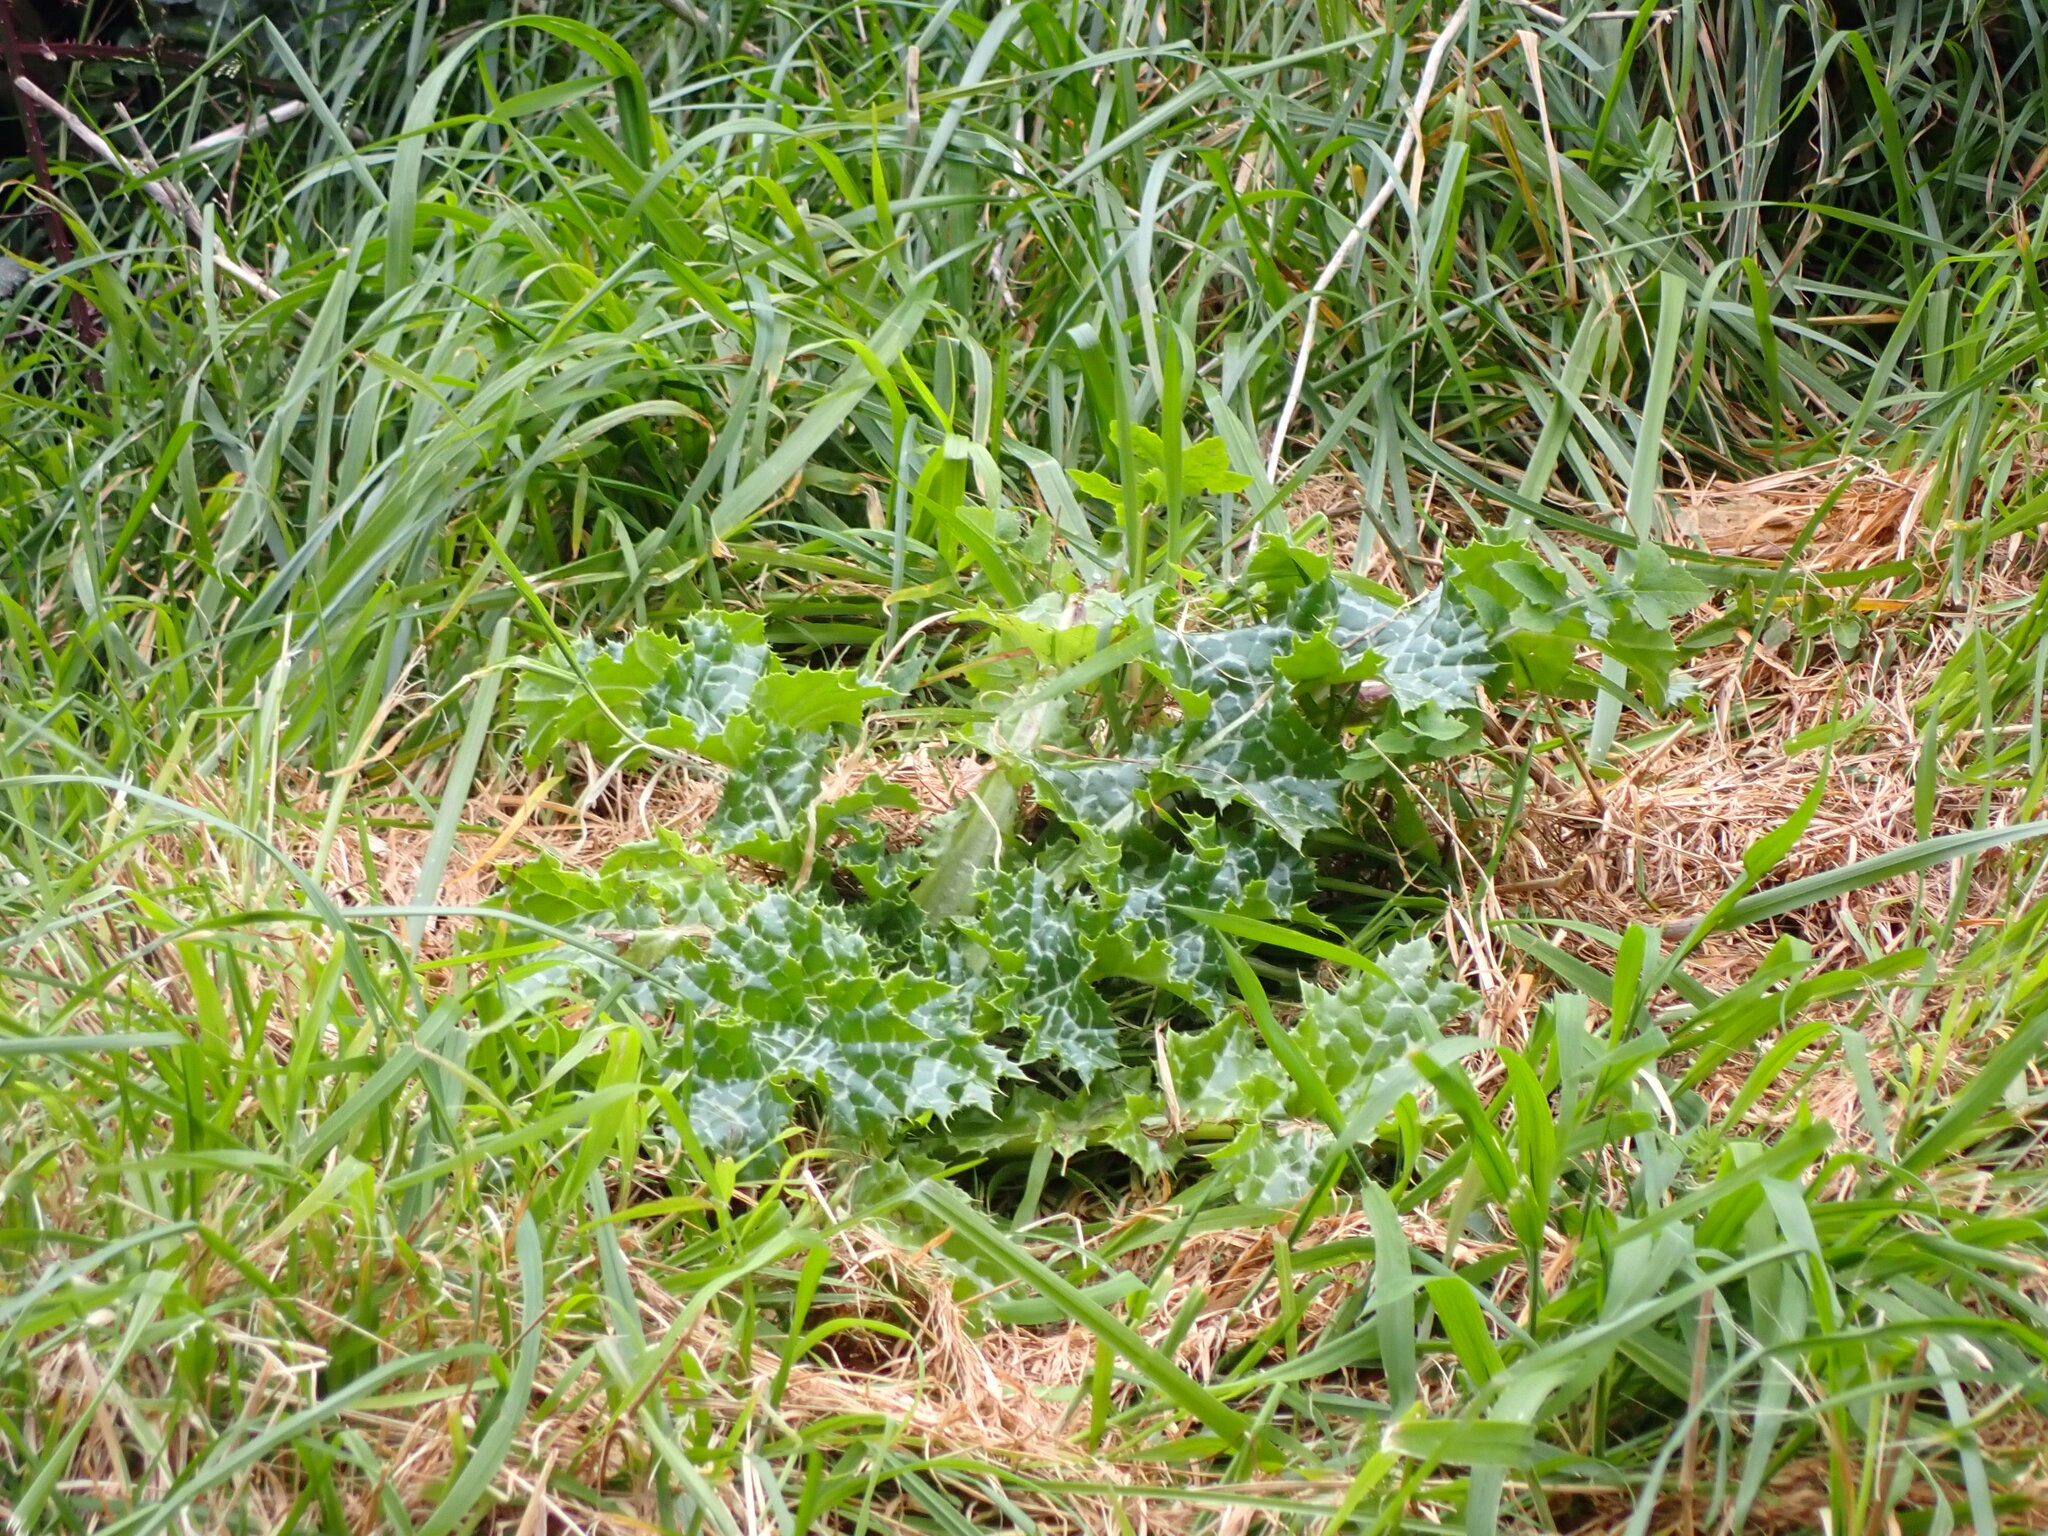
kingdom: Plantae
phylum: Tracheophyta
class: Magnoliopsida
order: Asterales
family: Asteraceae
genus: Silybum
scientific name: Silybum marianum
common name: Milk thistle
